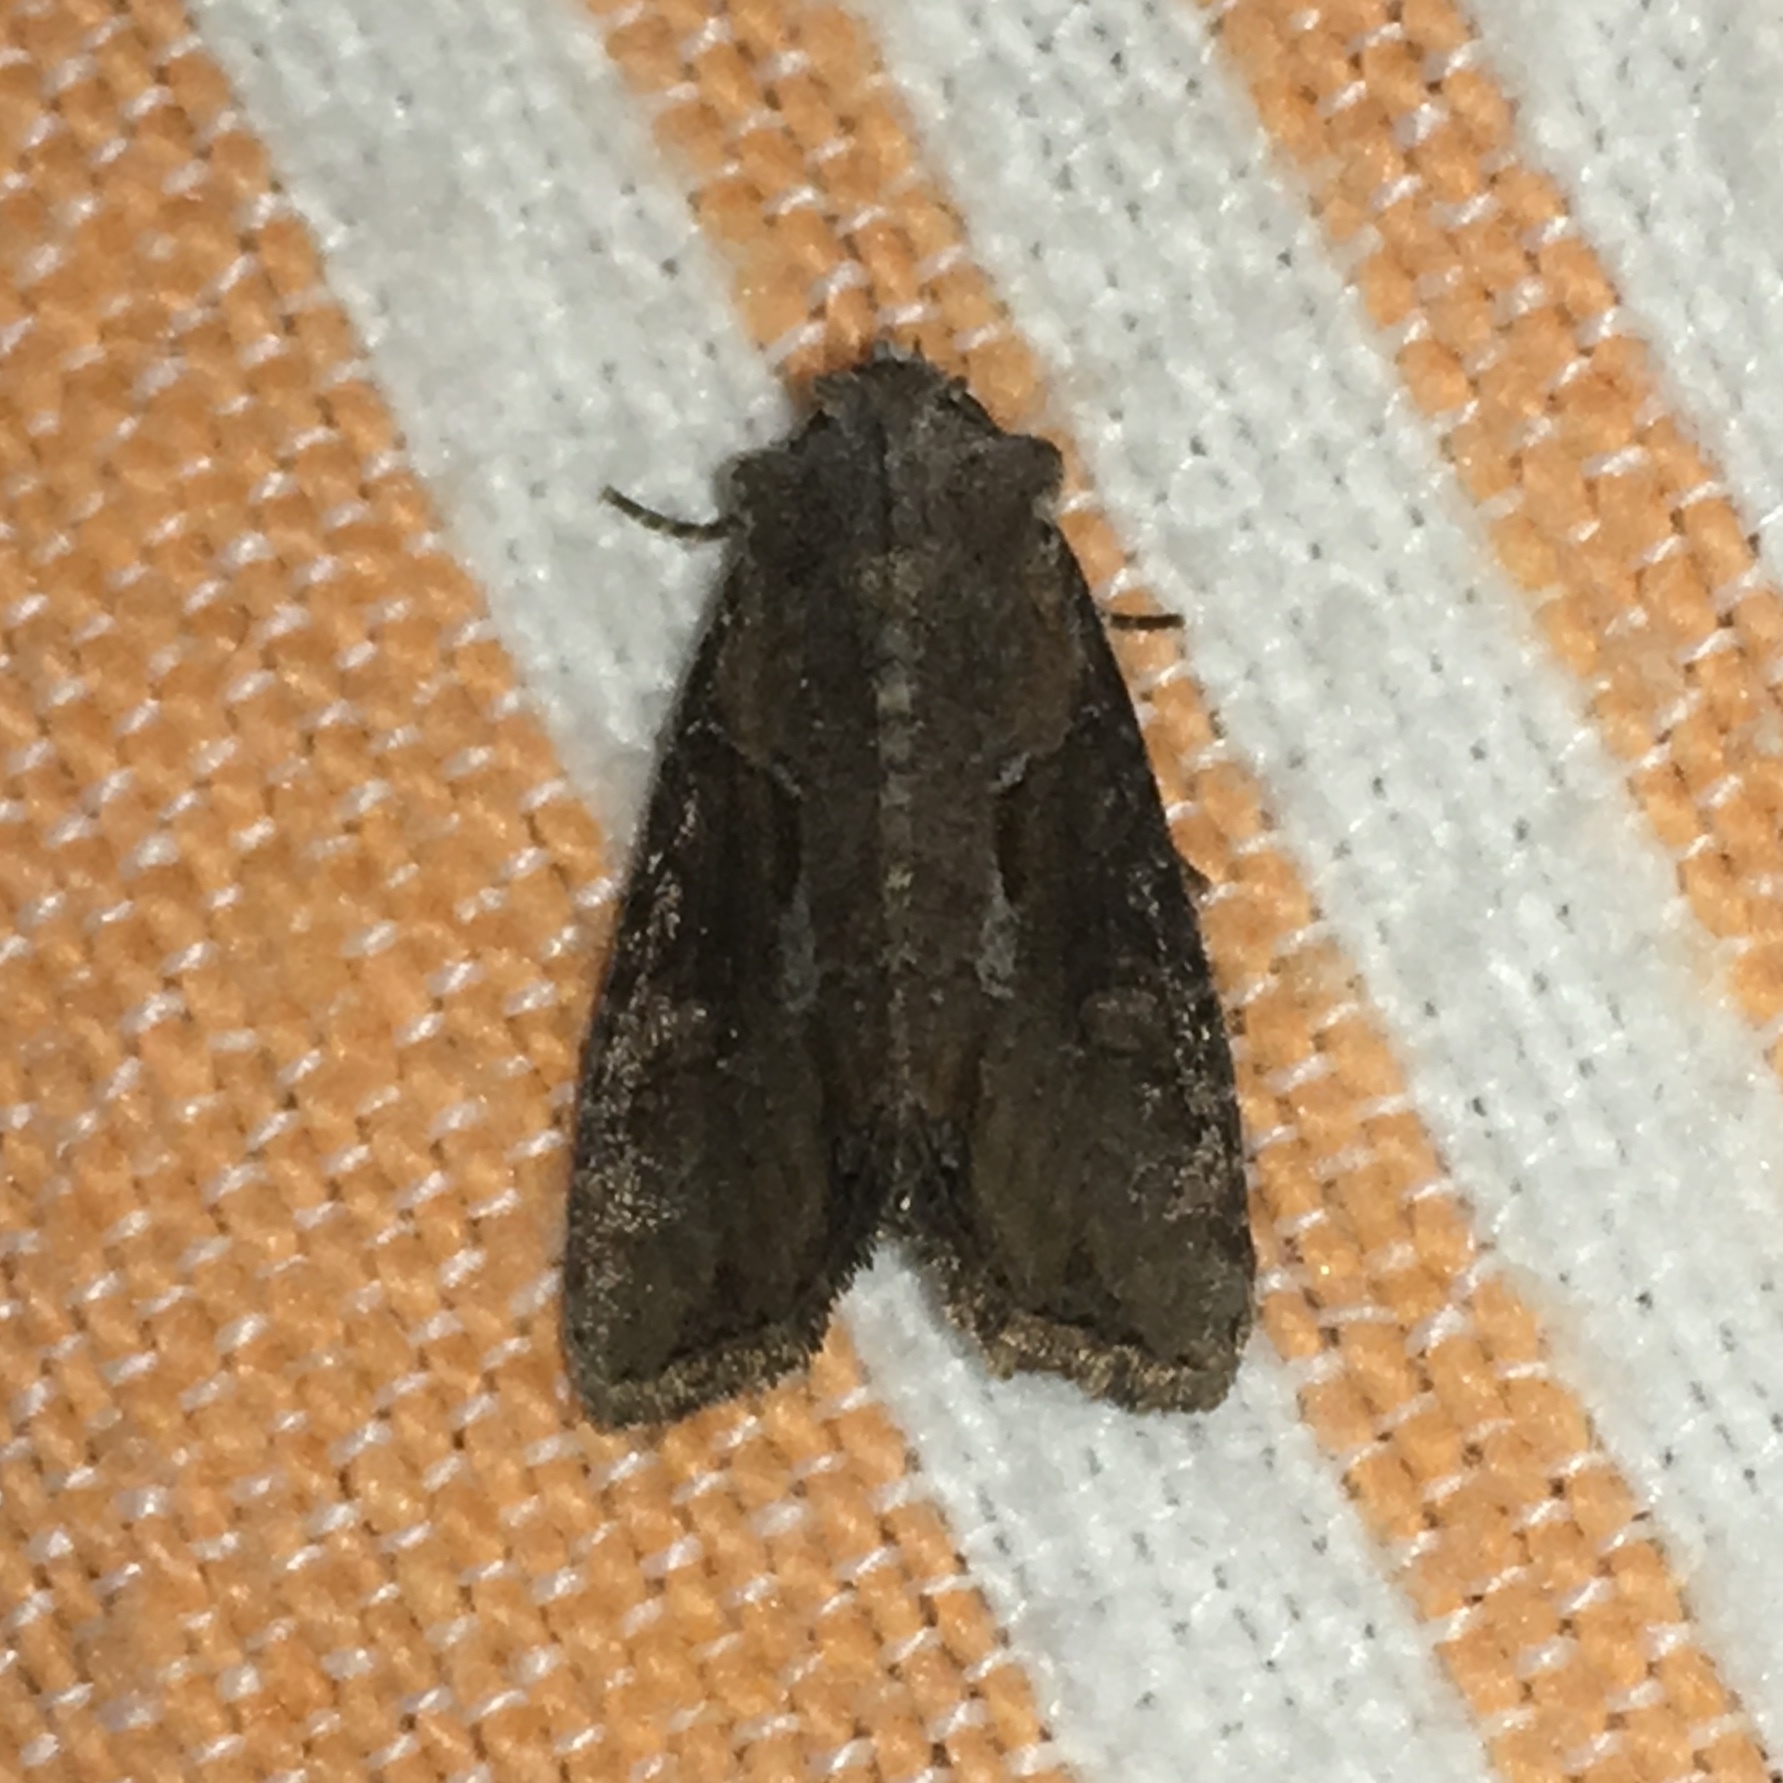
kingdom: Animalia
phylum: Arthropoda
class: Insecta
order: Lepidoptera
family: Noctuidae
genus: Lateroligia
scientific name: Lateroligia ophiogramma
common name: Double lobed
